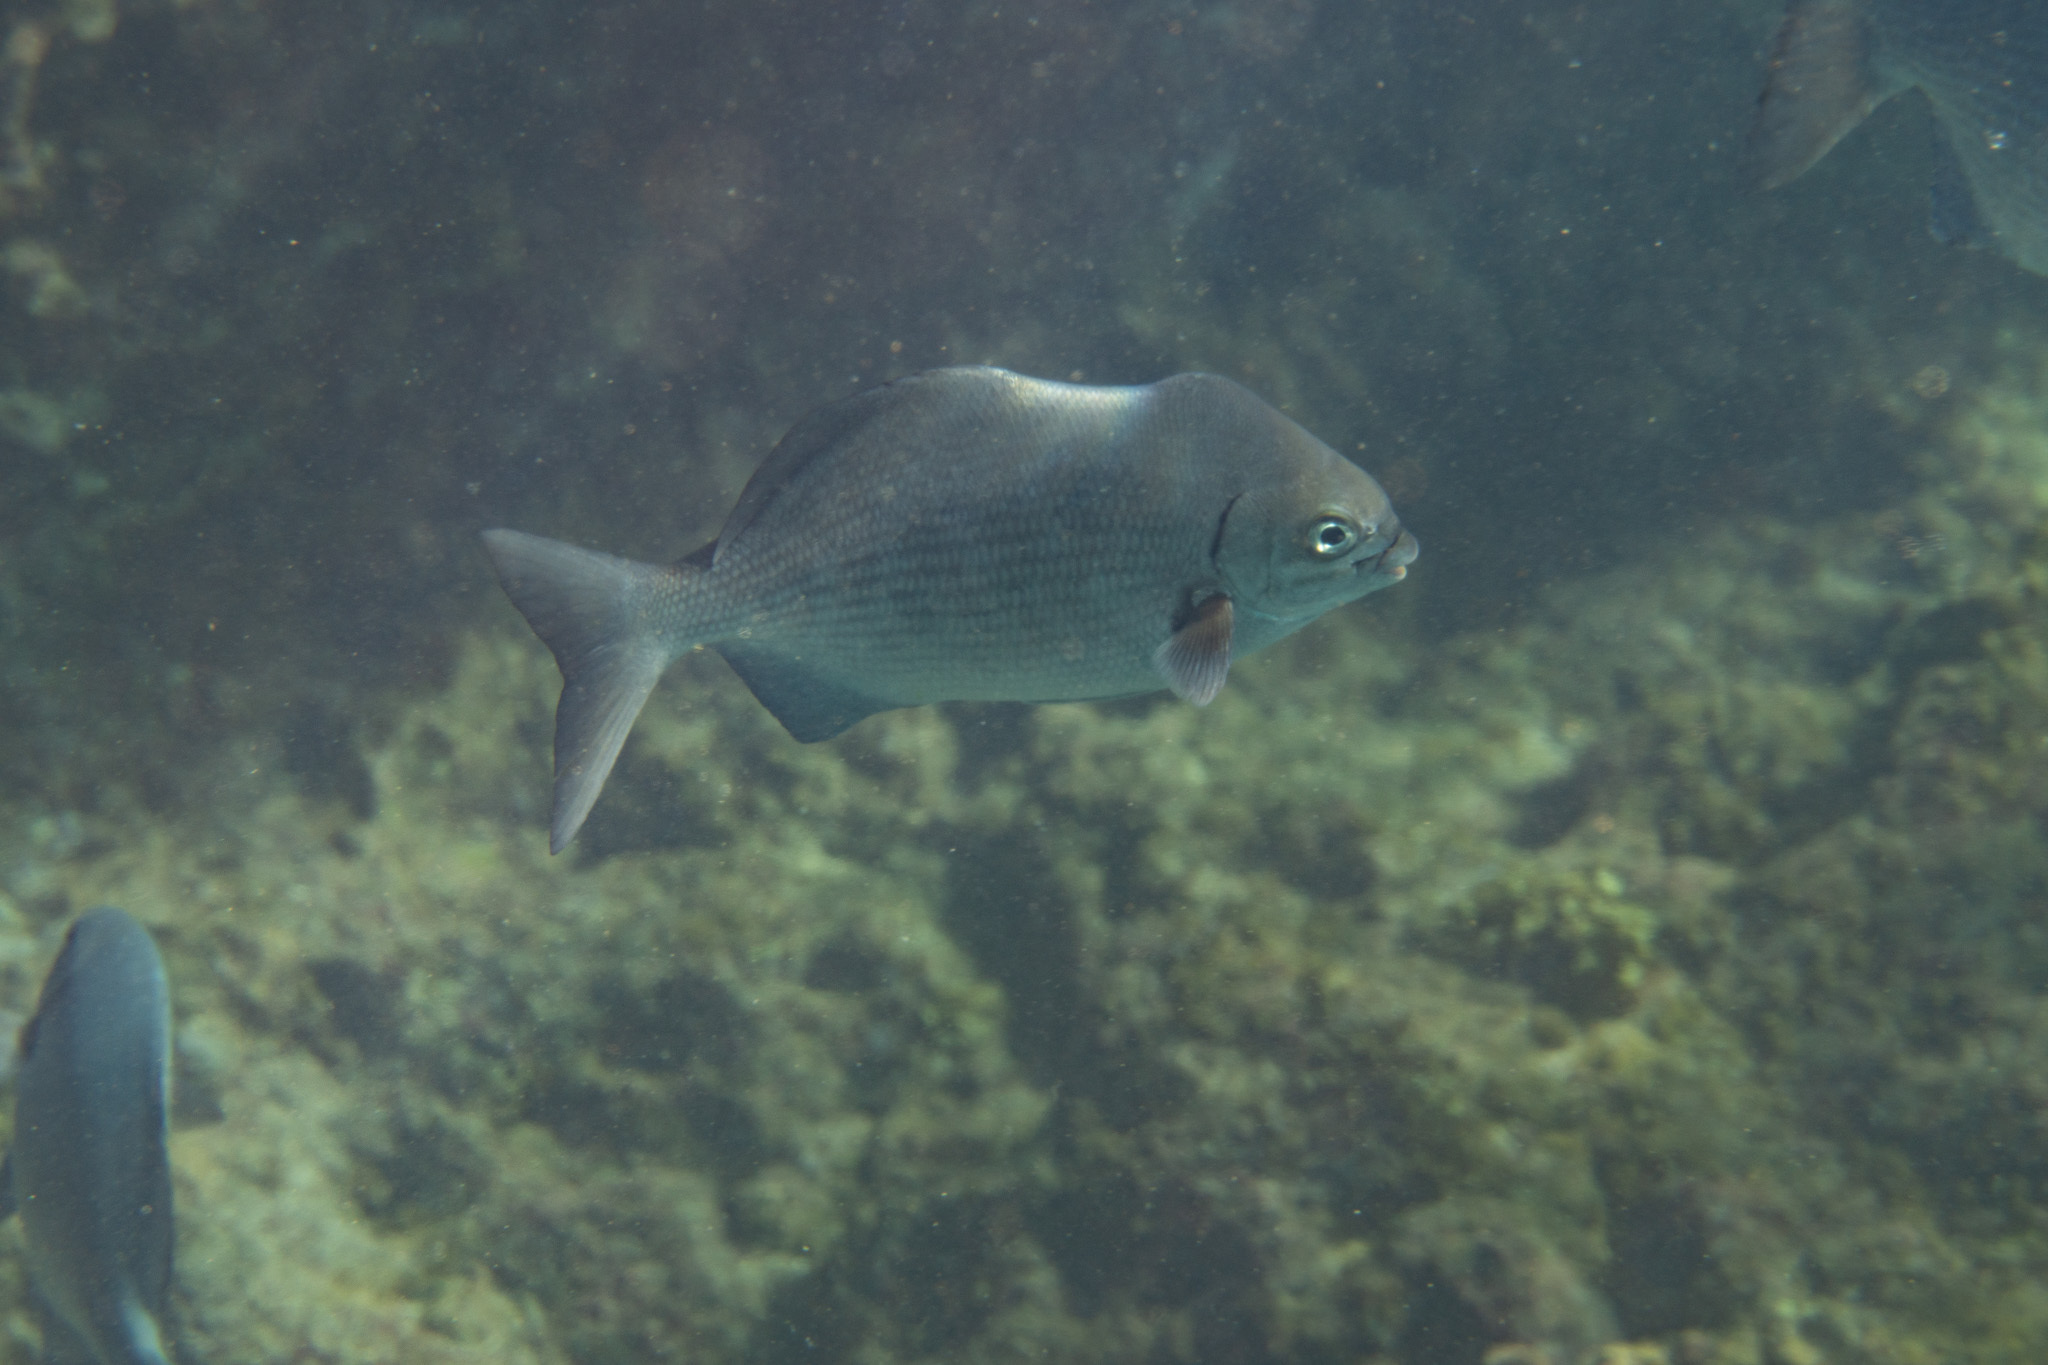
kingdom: Animalia
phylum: Chordata
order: Perciformes
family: Kyphosidae
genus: Kyphosus
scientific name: Kyphosus sectatrix
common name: Bermuda chub
